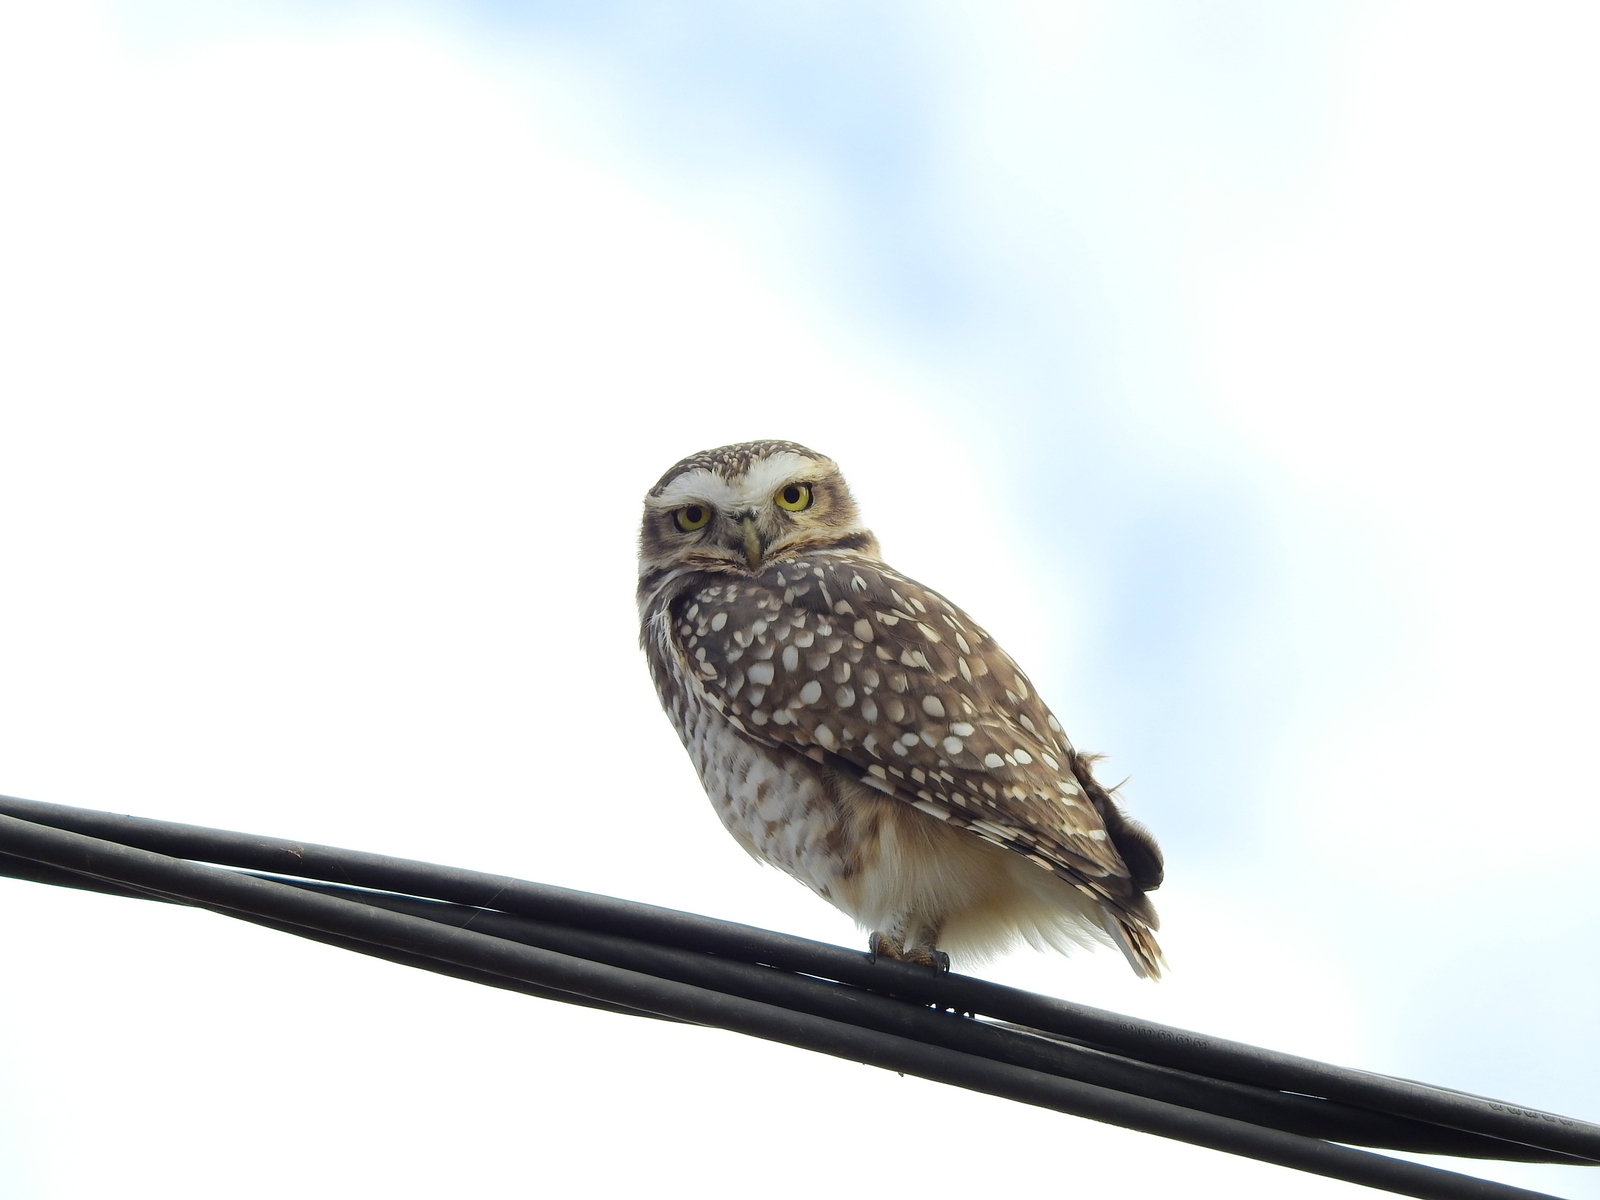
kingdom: Animalia
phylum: Chordata
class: Aves
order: Strigiformes
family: Strigidae
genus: Athene
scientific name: Athene cunicularia
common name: Burrowing owl
